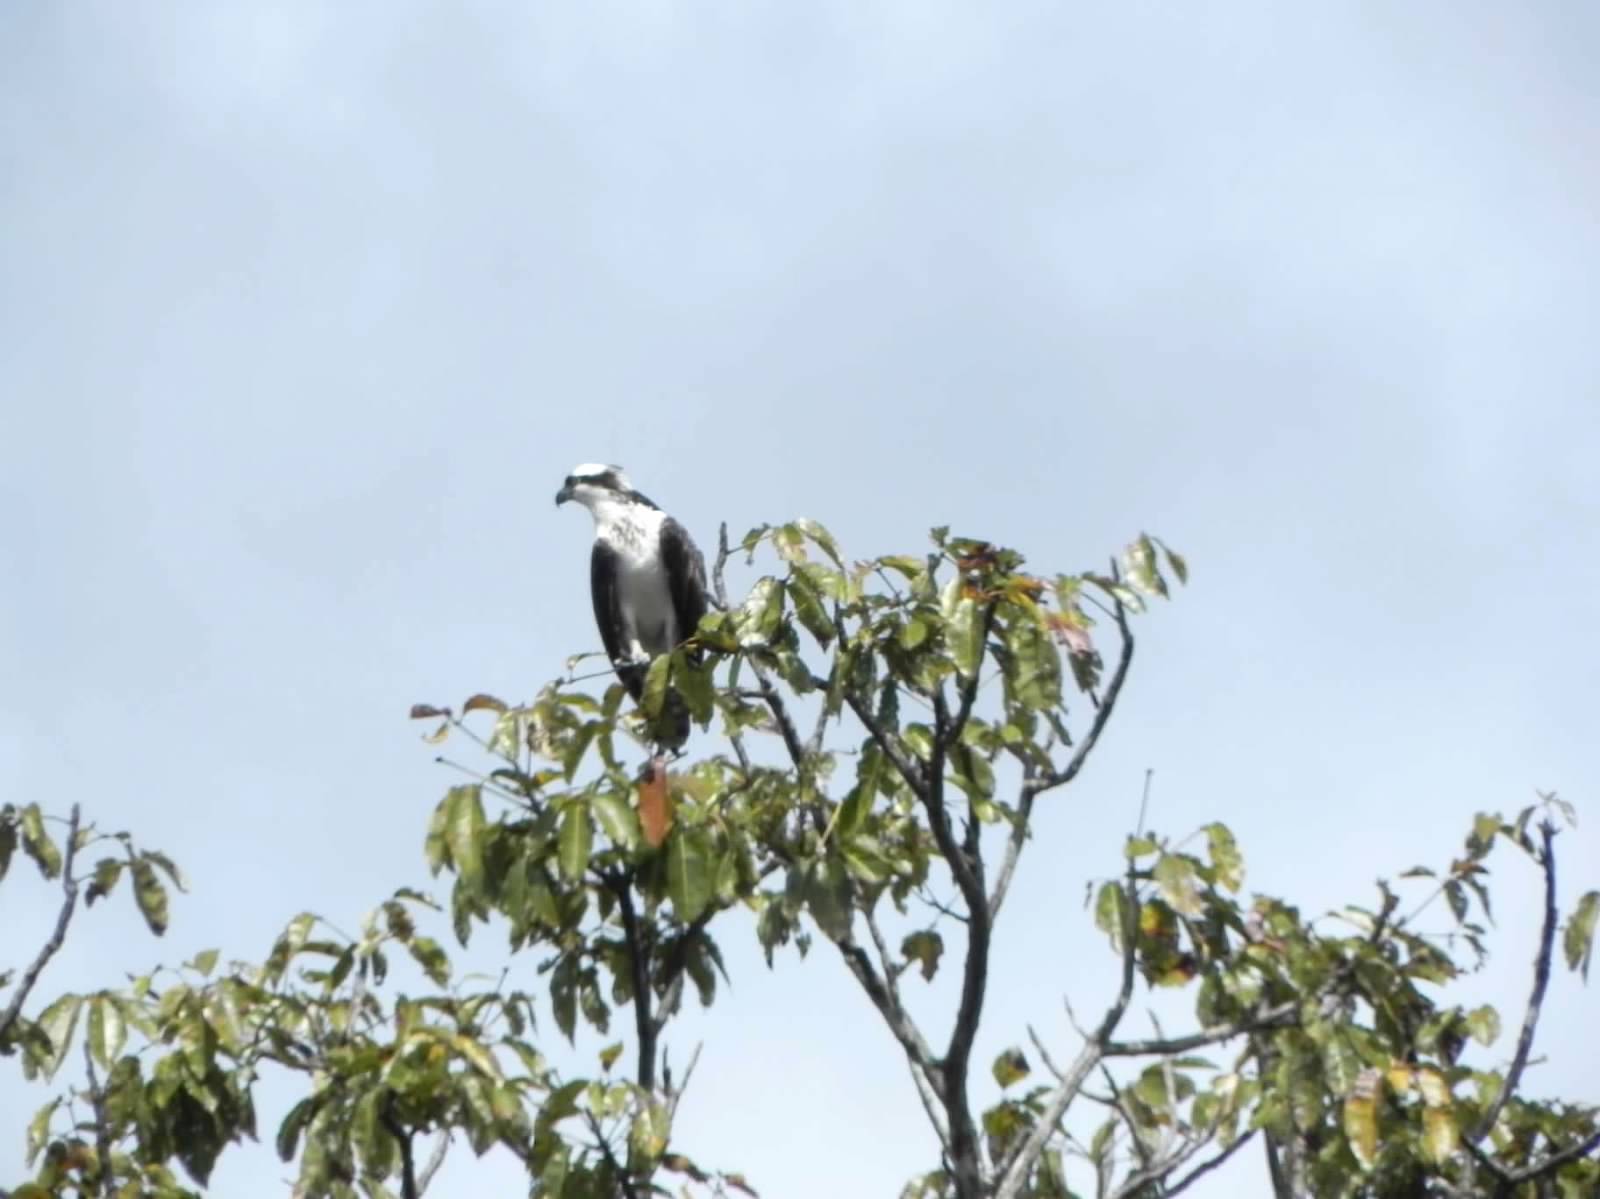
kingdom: Animalia
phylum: Chordata
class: Aves
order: Accipitriformes
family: Pandionidae
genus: Pandion
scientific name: Pandion haliaetus
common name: Osprey
